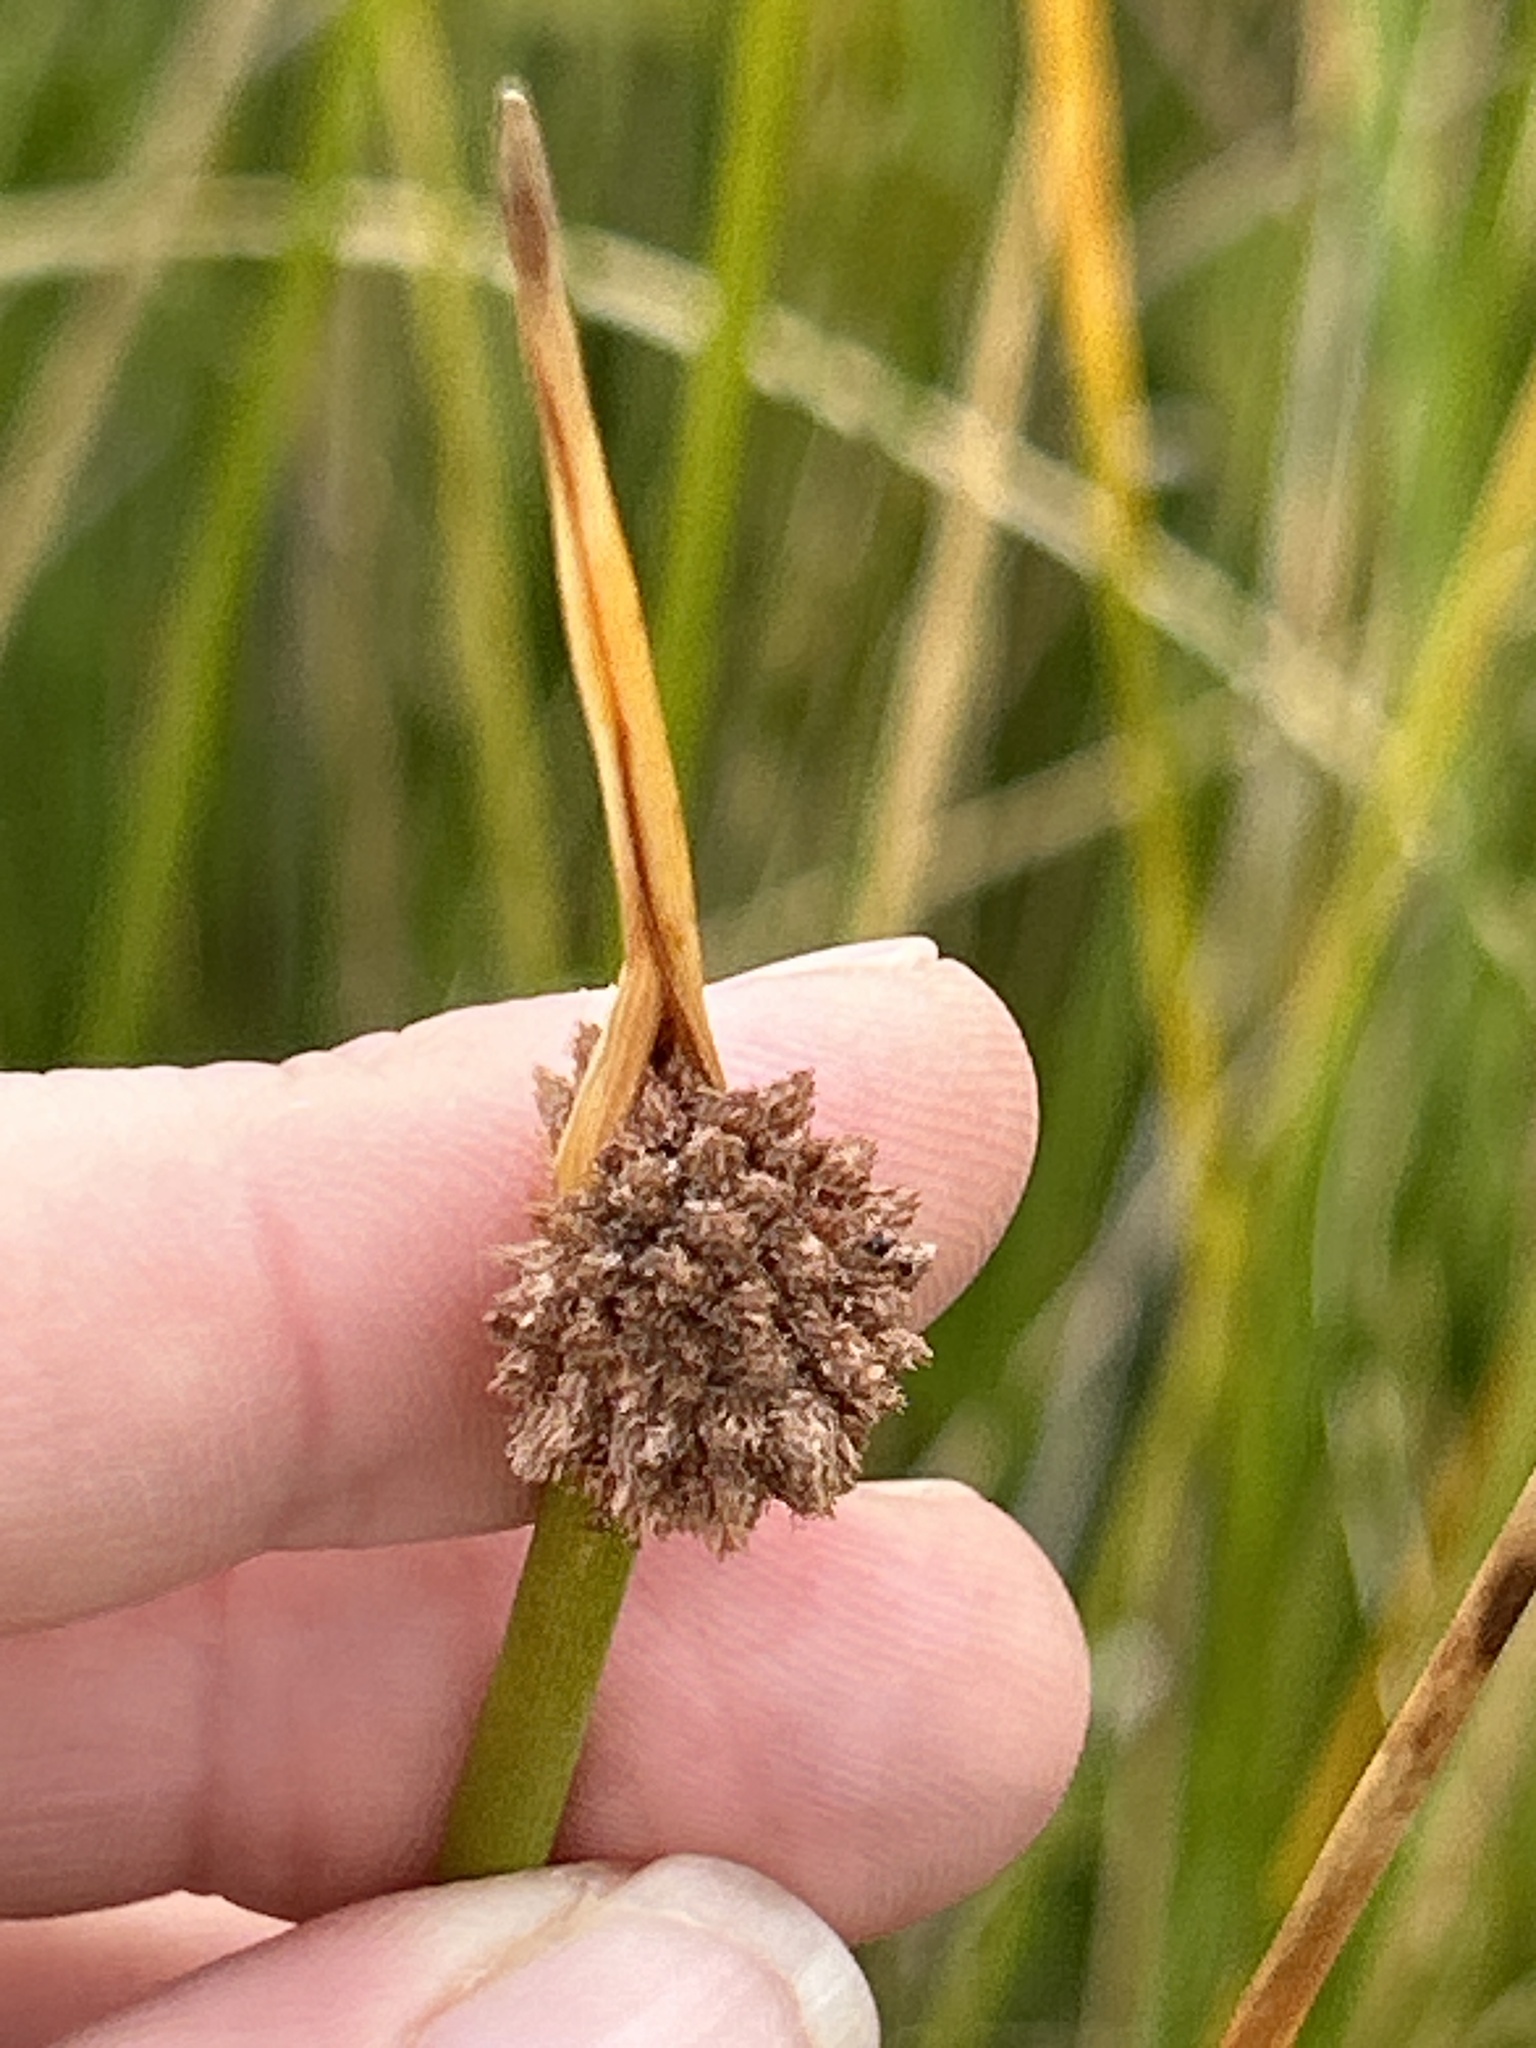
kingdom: Plantae
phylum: Tracheophyta
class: Liliopsida
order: Poales
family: Cyperaceae
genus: Ficinia
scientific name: Ficinia nodosa
